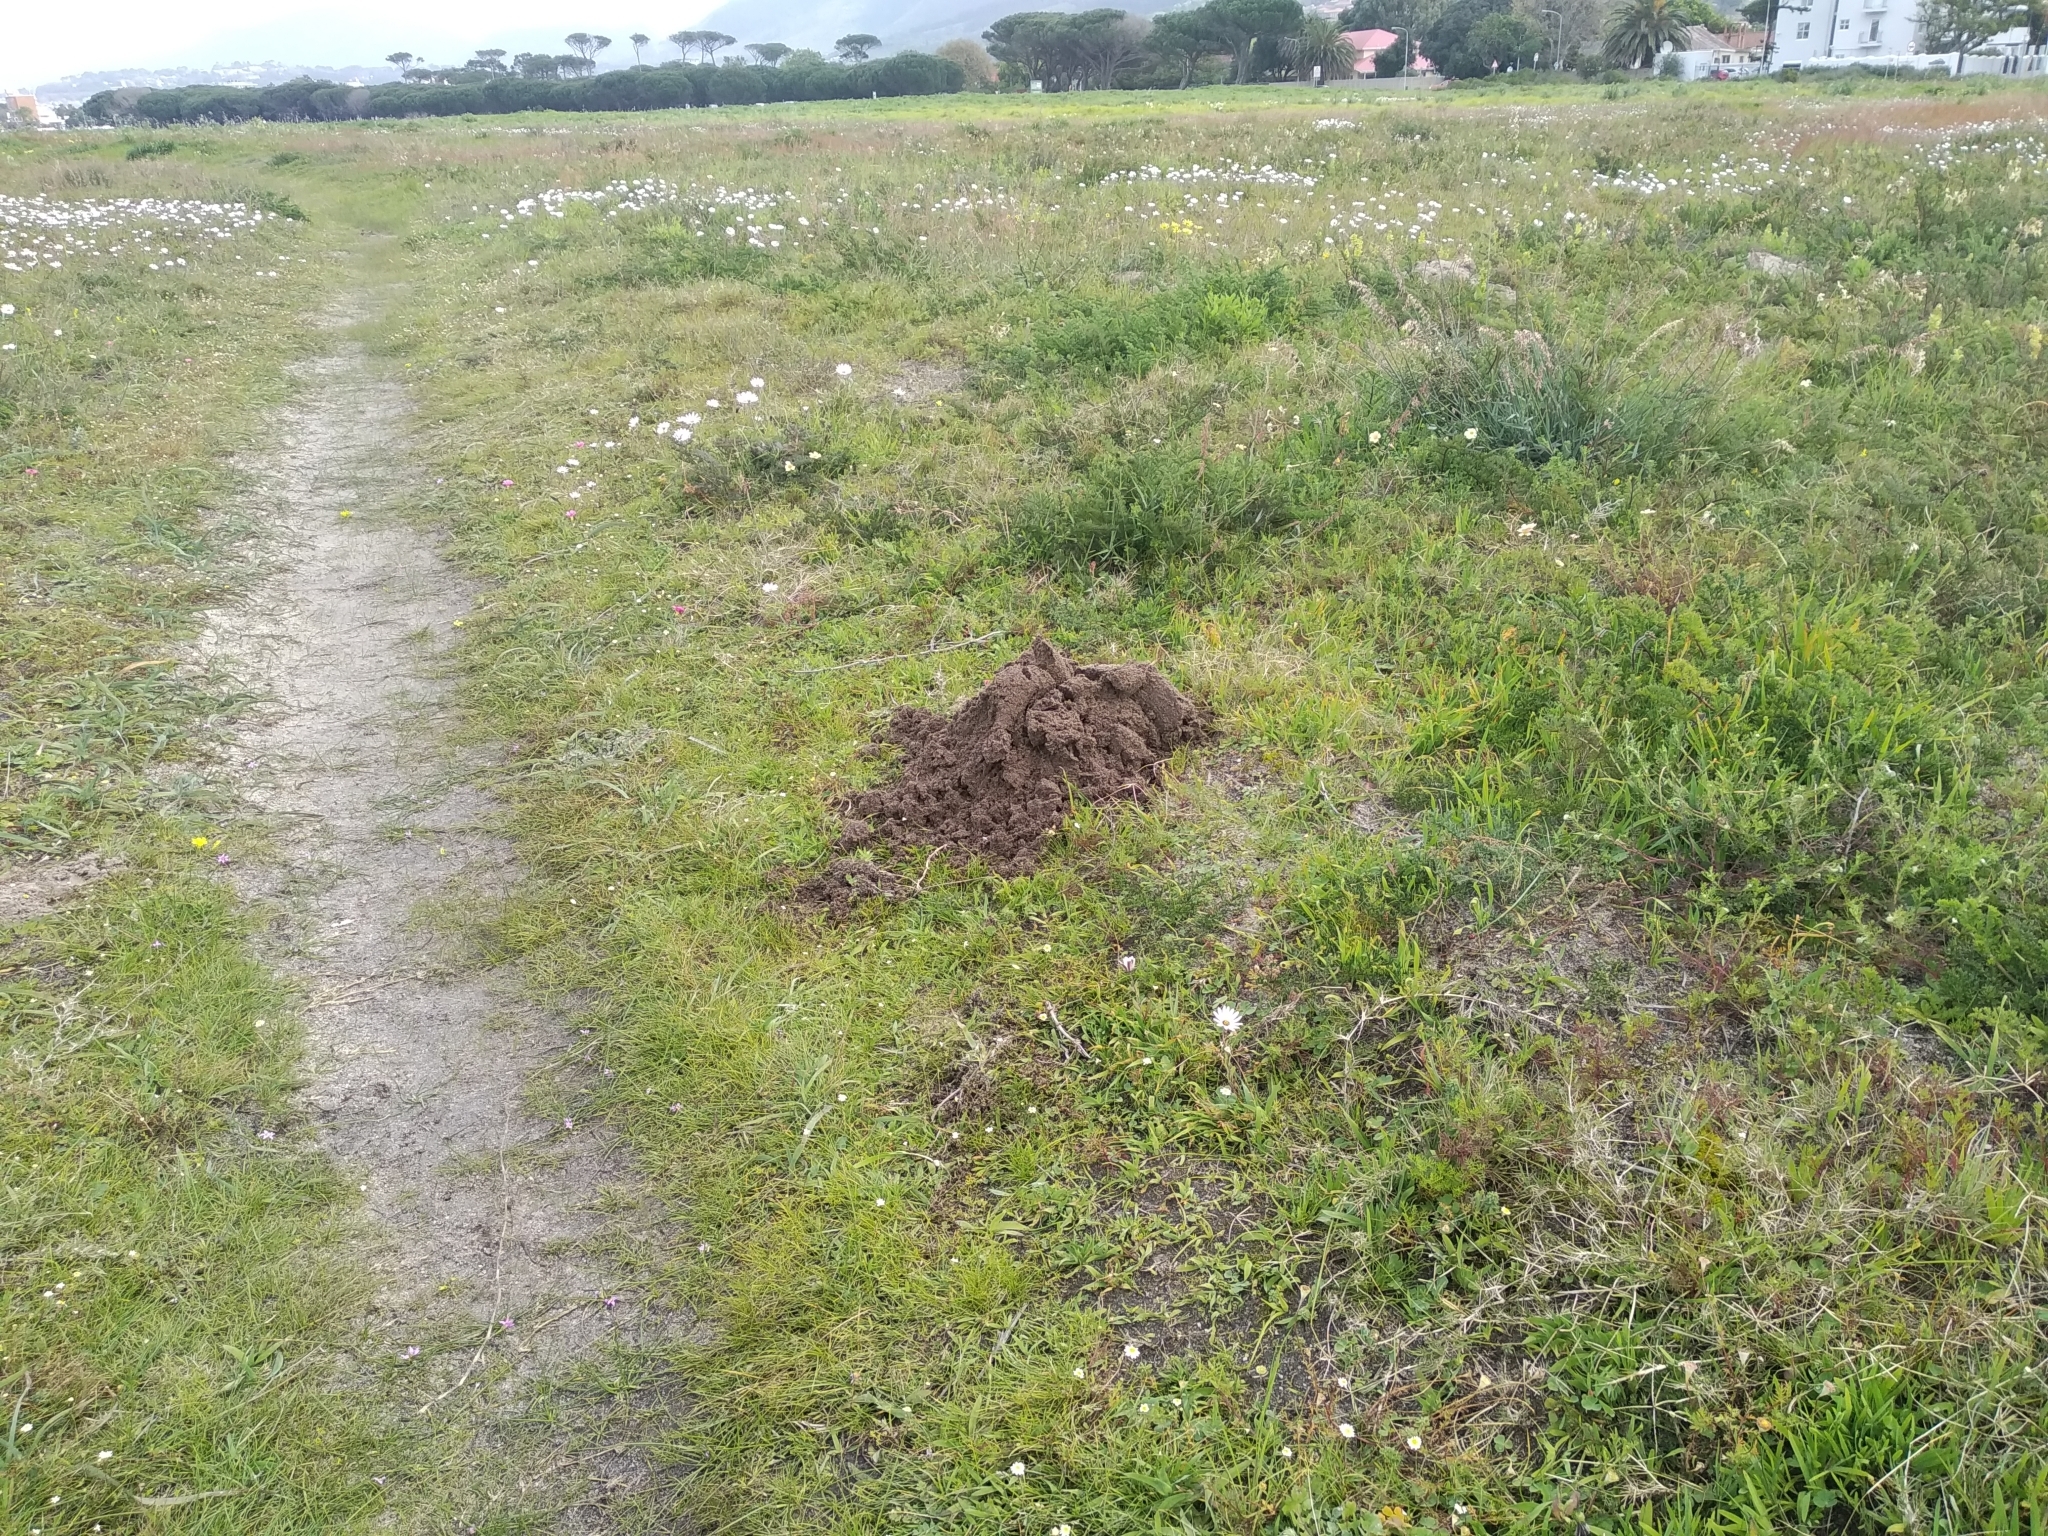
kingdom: Animalia
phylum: Chordata
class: Mammalia
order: Rodentia
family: Bathyergidae
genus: Bathyergus
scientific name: Bathyergus suillus
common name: Cape dune mole rat
